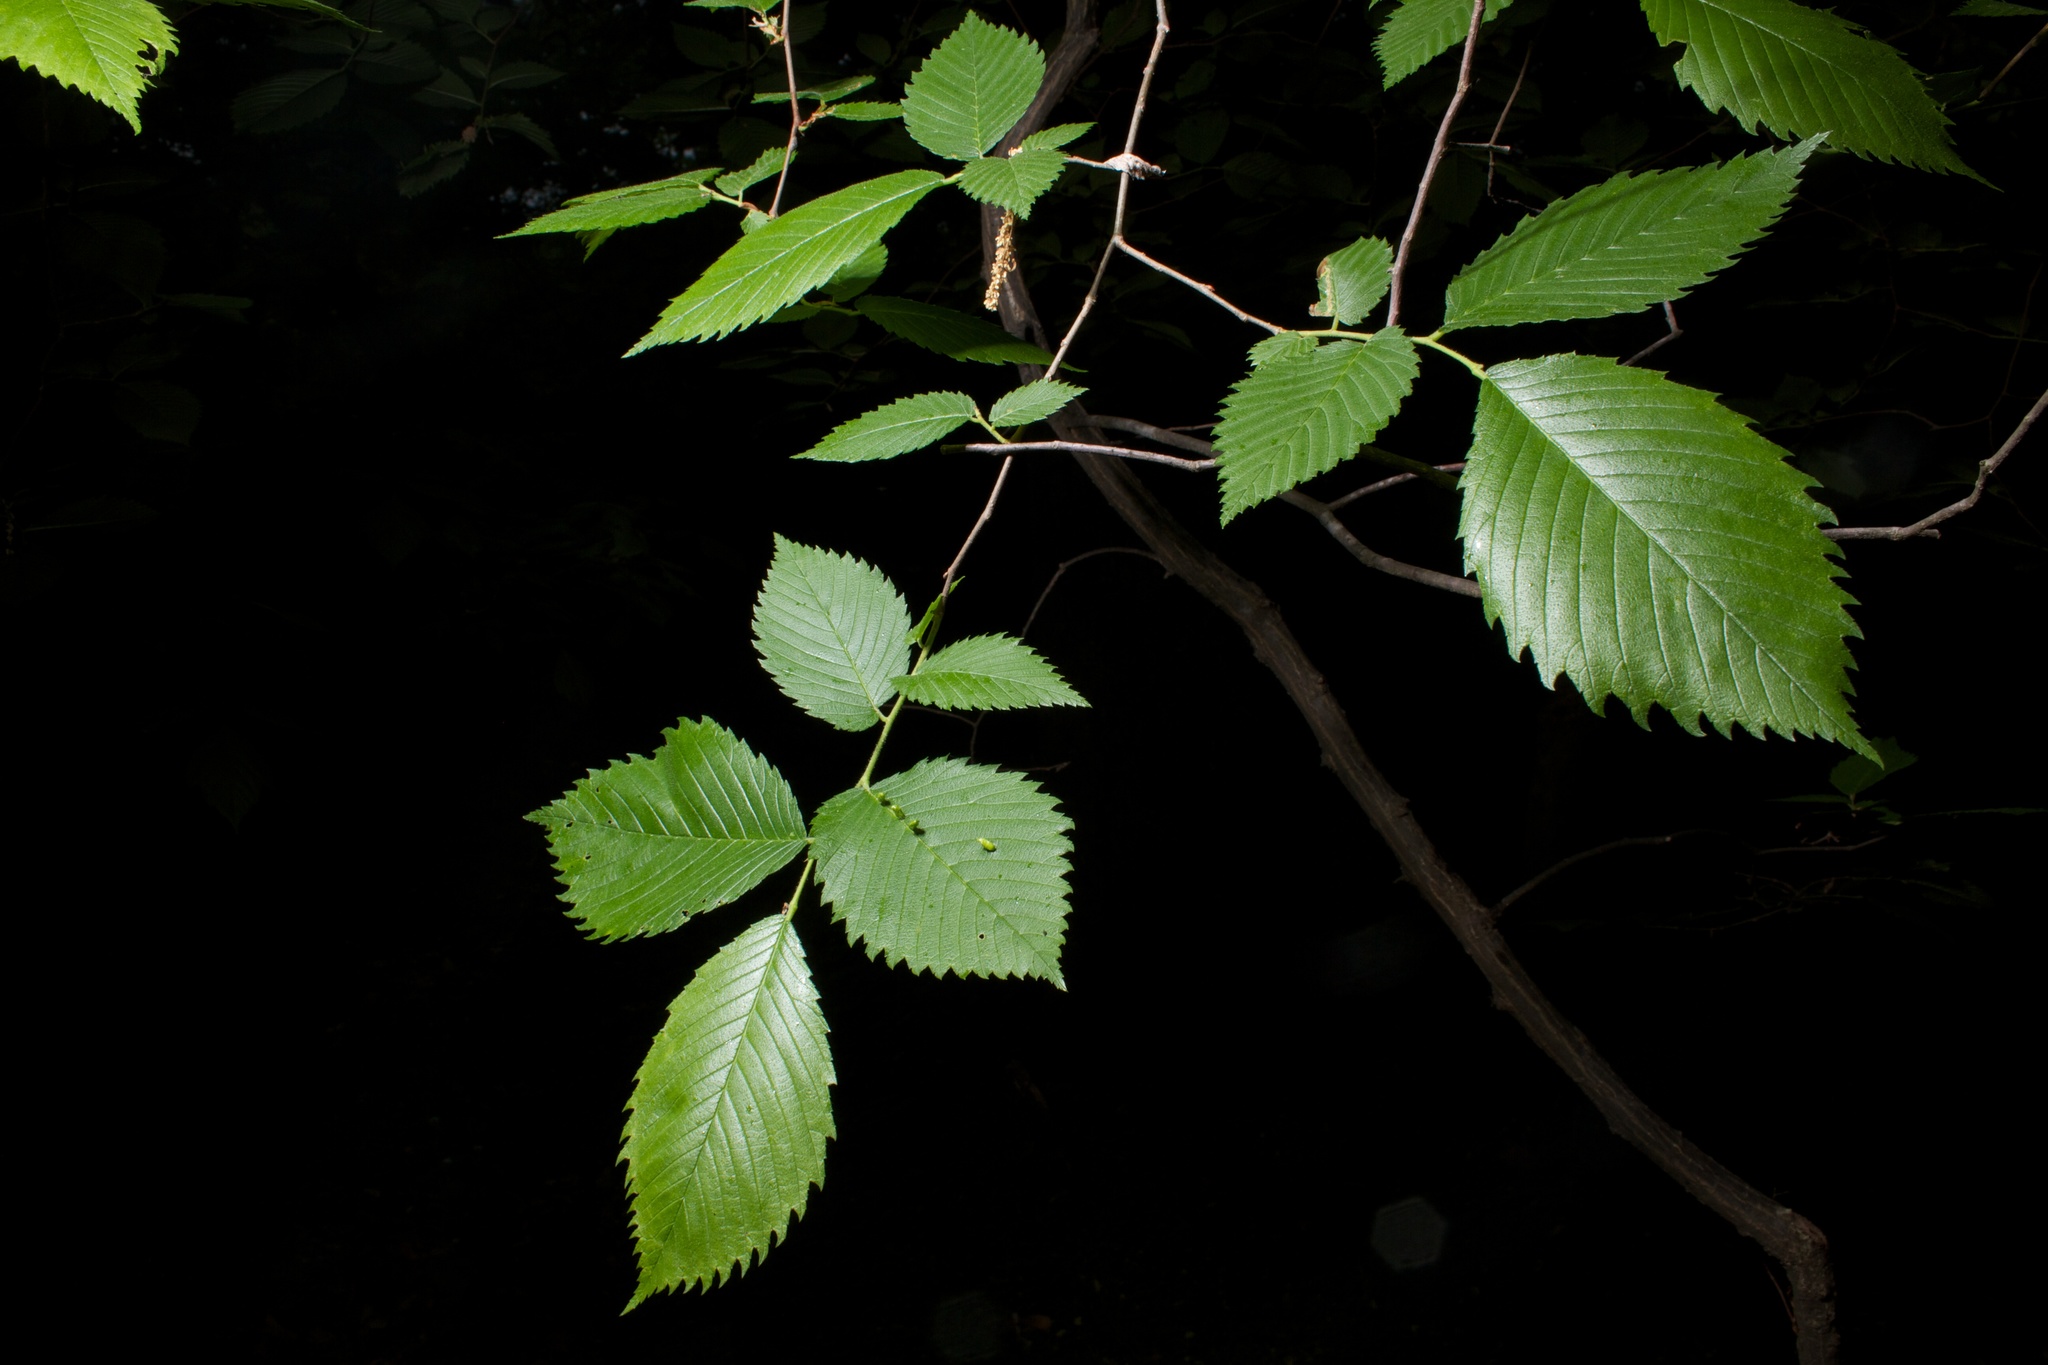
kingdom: Plantae
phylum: Tracheophyta
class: Magnoliopsida
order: Rosales
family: Ulmaceae
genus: Ulmus
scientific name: Ulmus americana
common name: American elm
